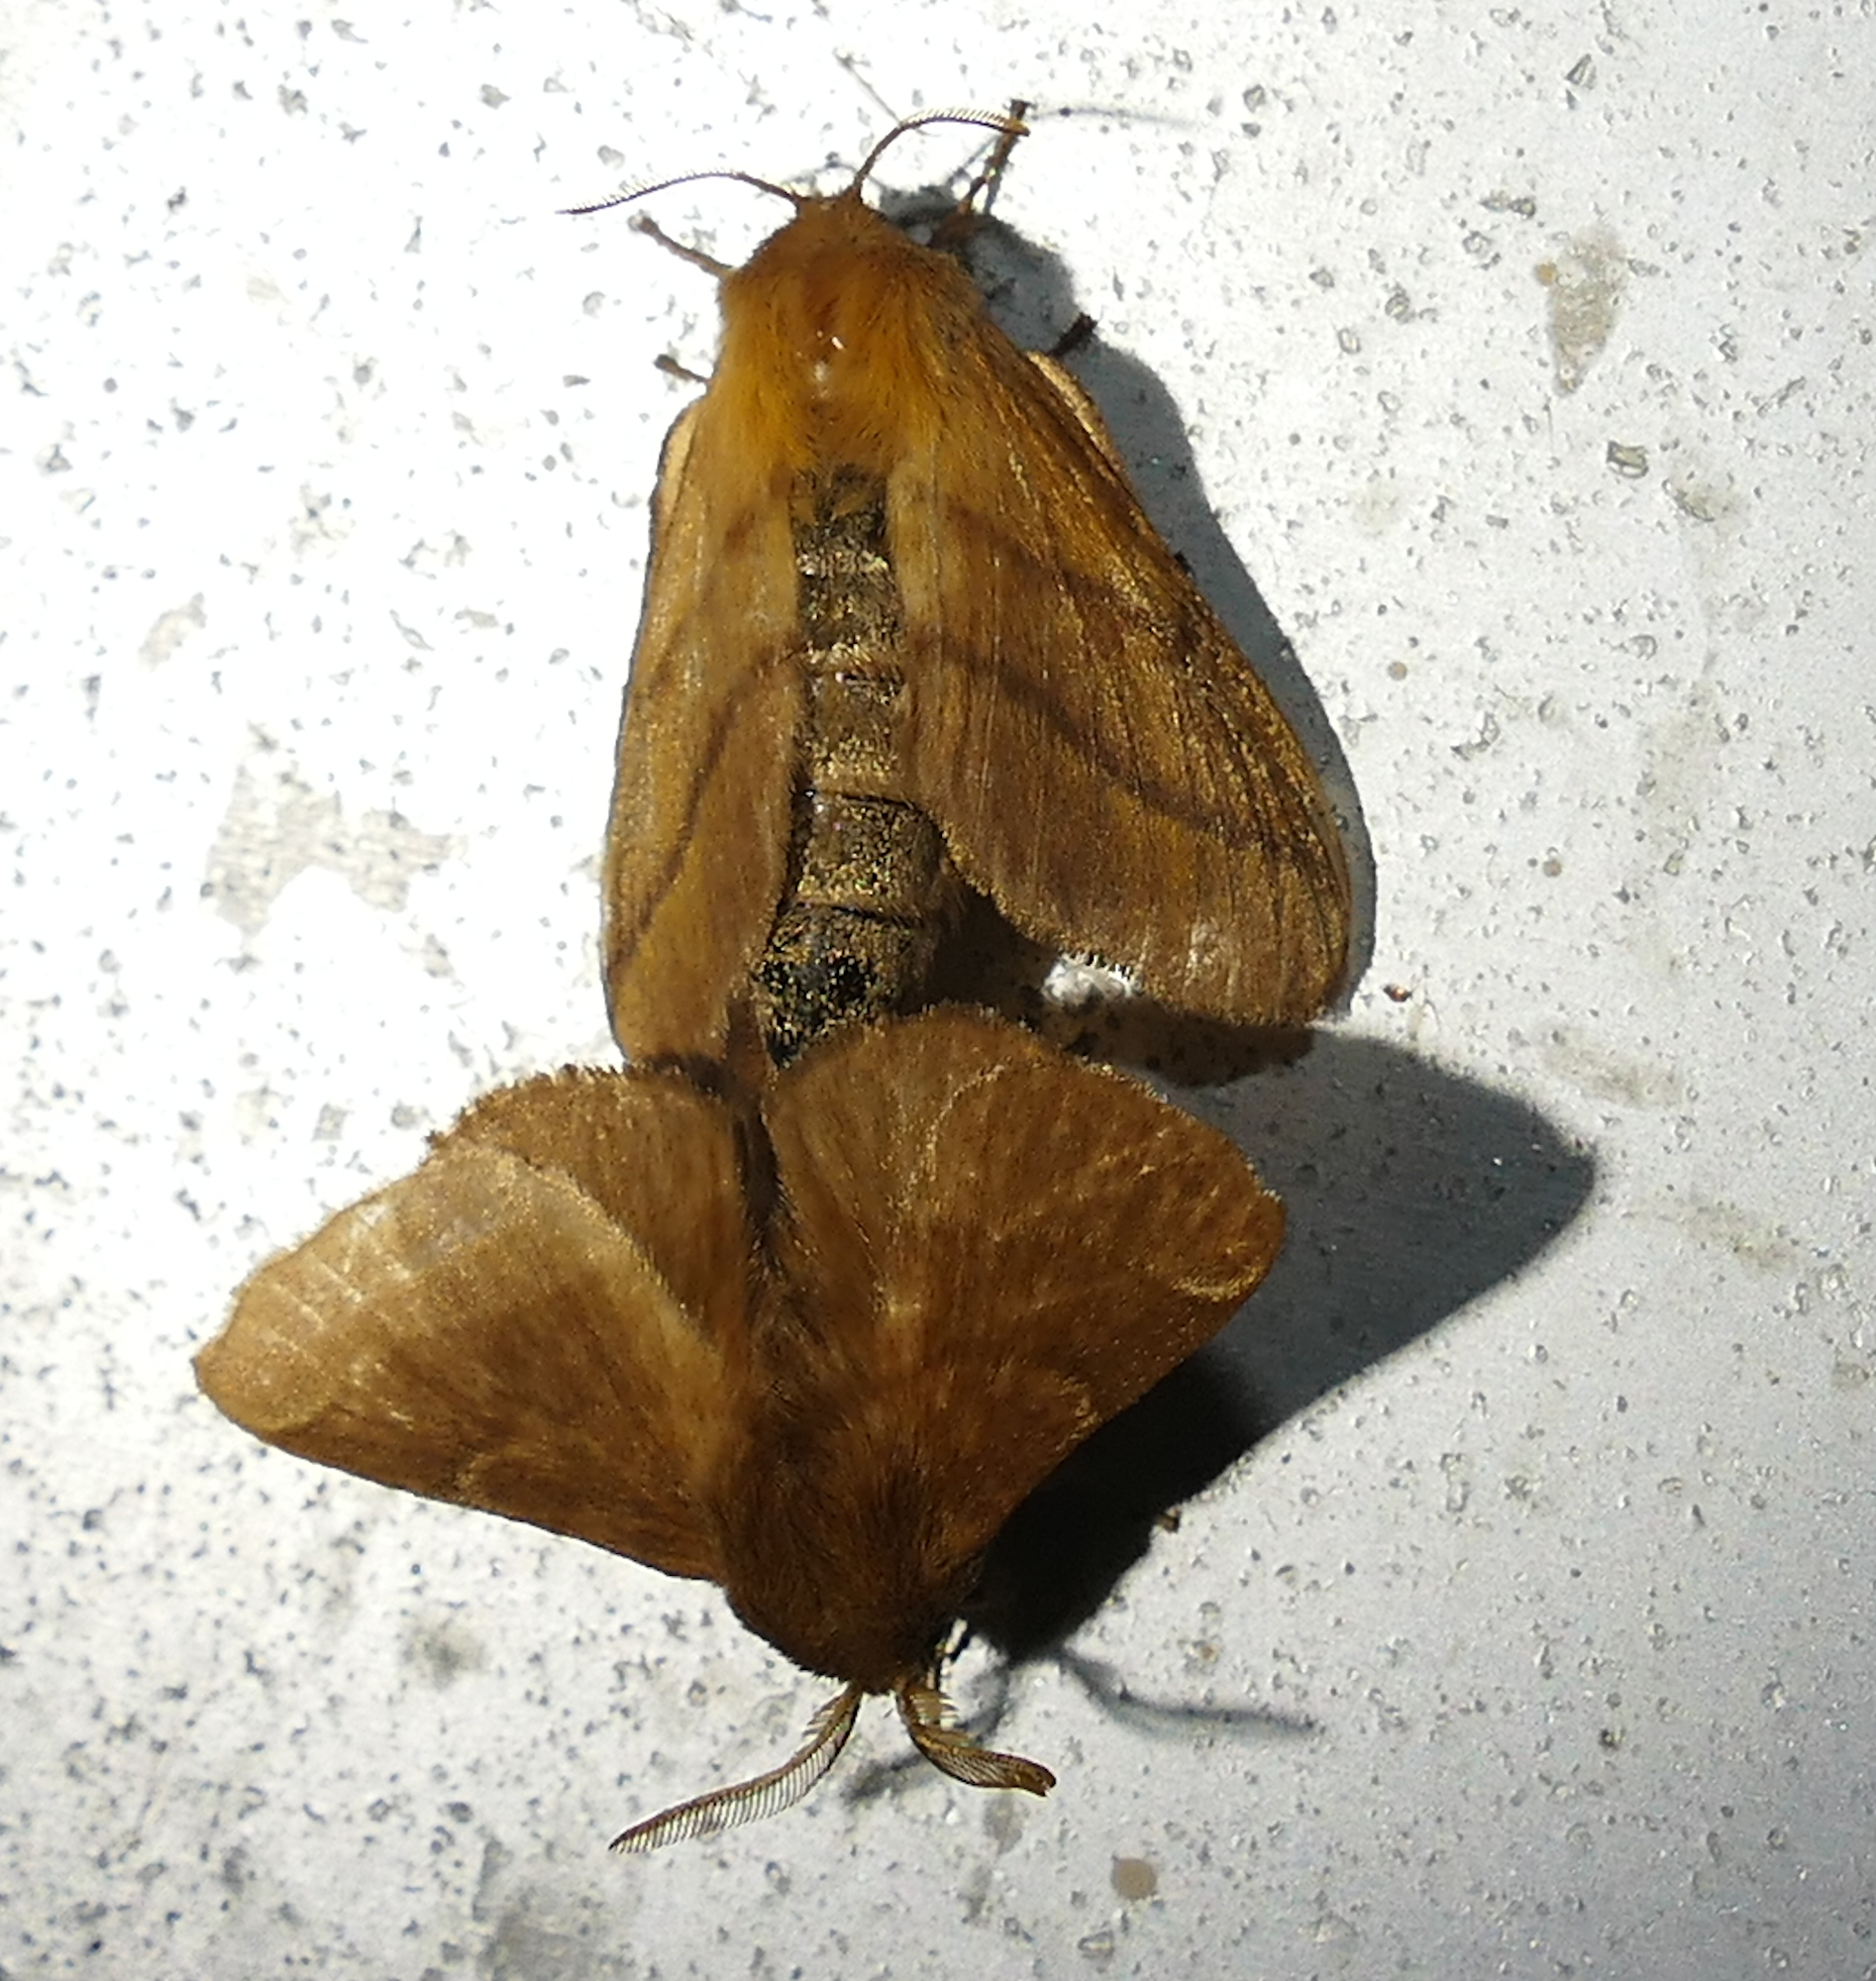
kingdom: Animalia
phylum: Arthropoda
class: Insecta
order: Lepidoptera
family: Lasiocampidae
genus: Malacosoma
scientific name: Malacosoma disstria
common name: Forest tent caterpillar
